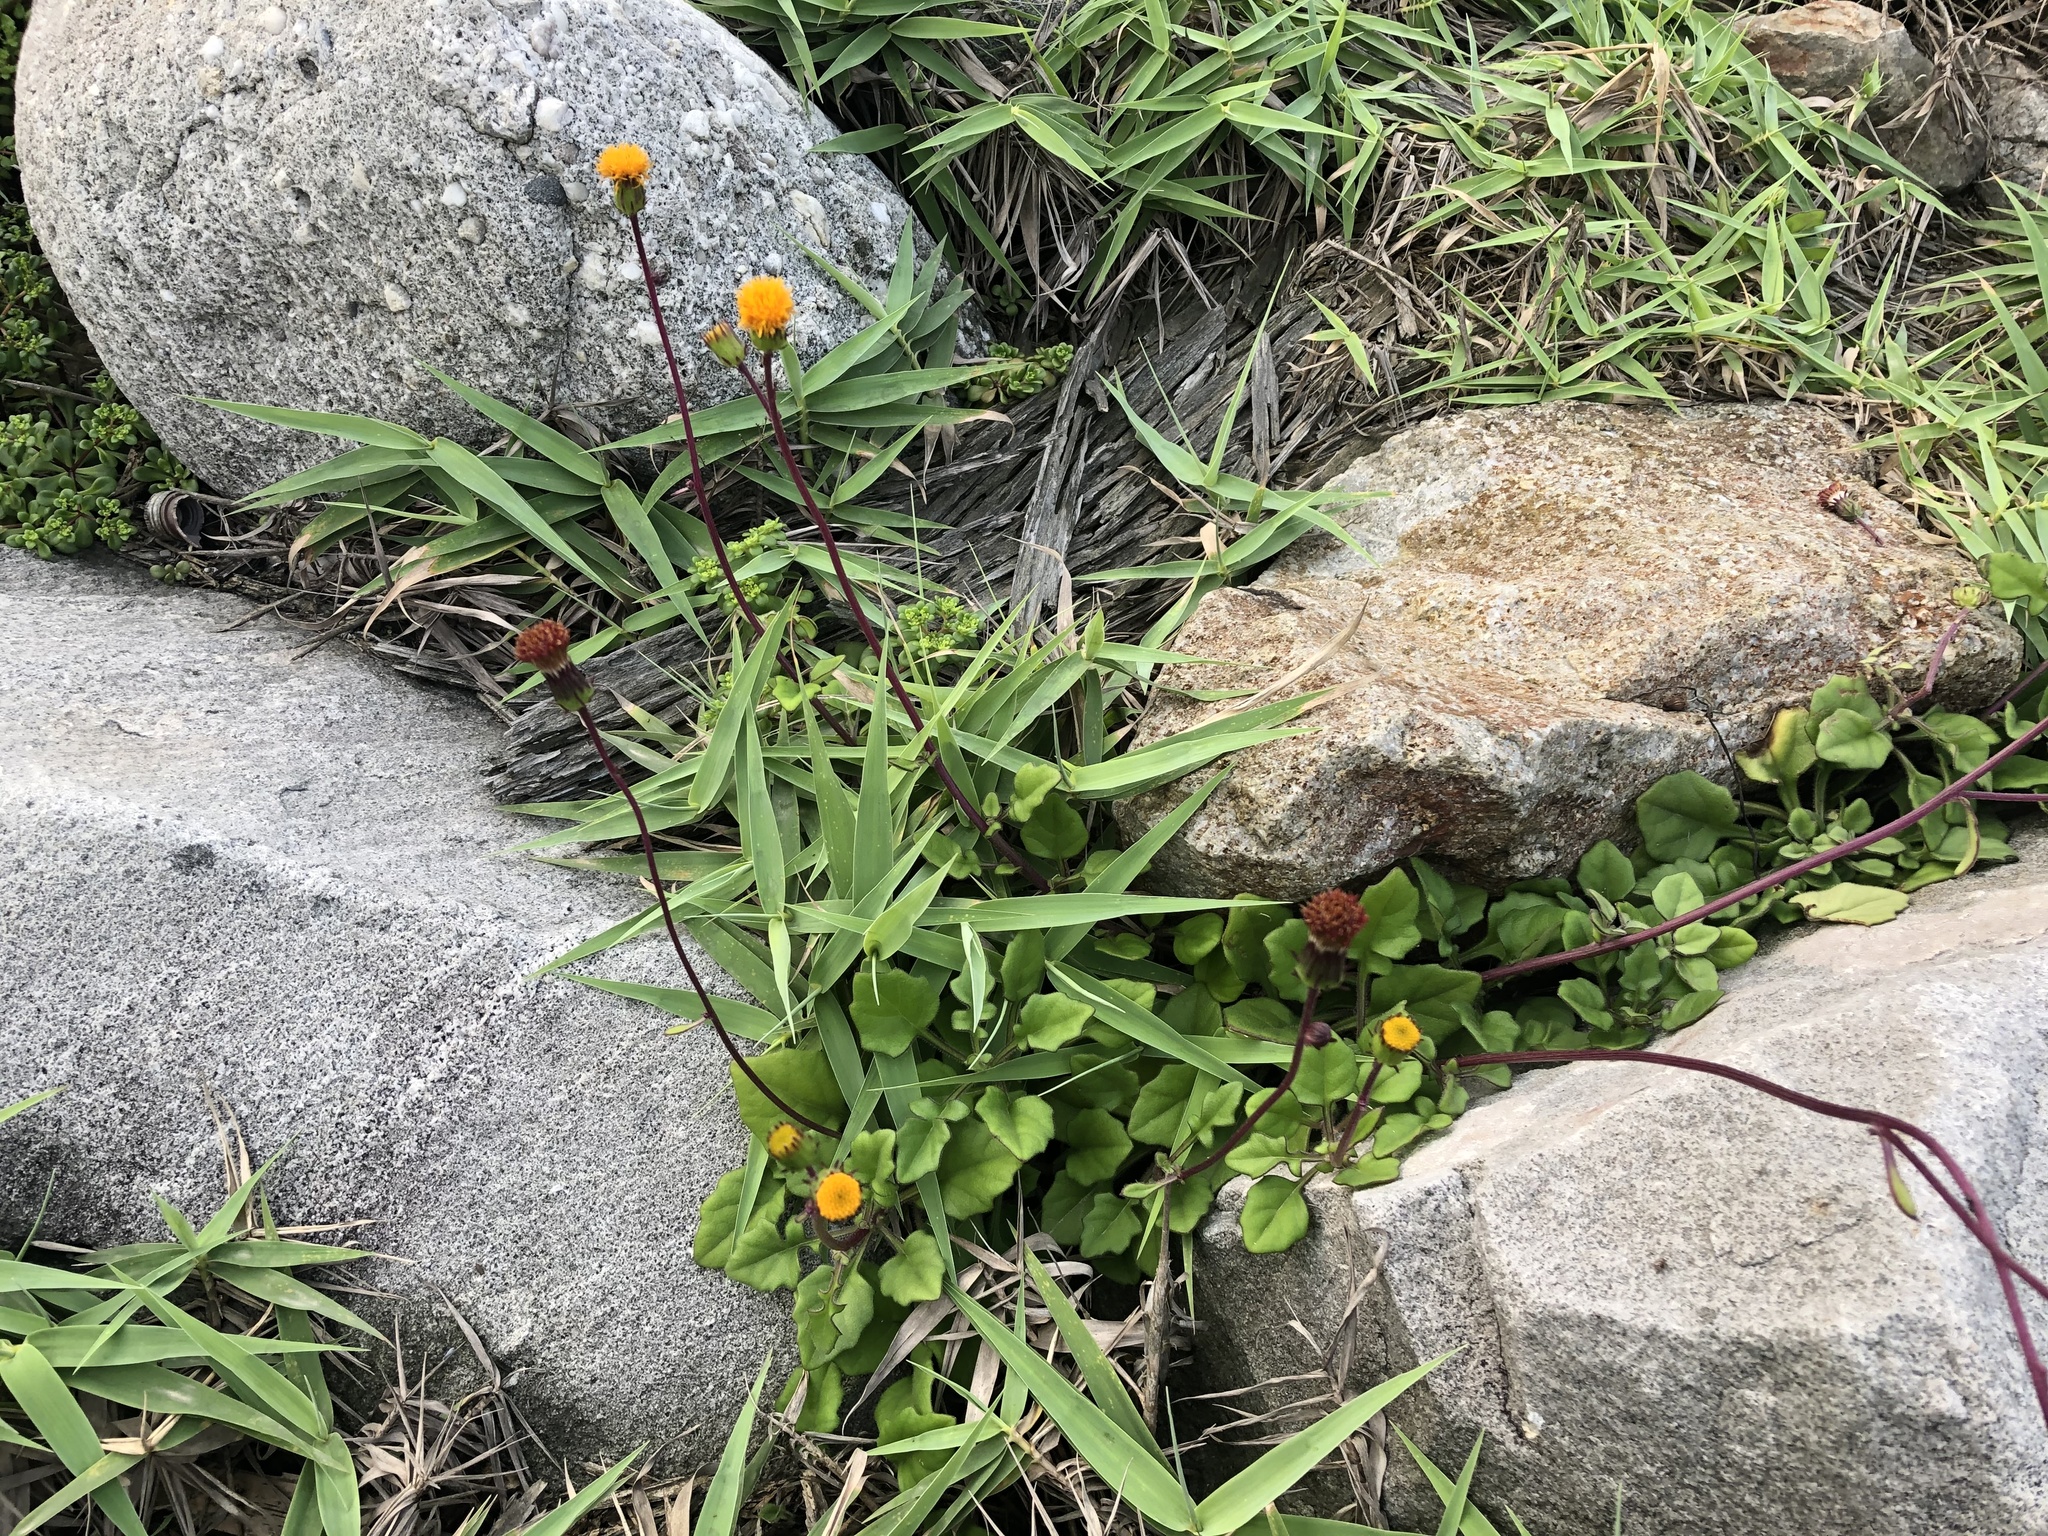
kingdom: Plantae
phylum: Tracheophyta
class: Magnoliopsida
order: Asterales
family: Asteraceae
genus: Gynura
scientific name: Gynura formosana
